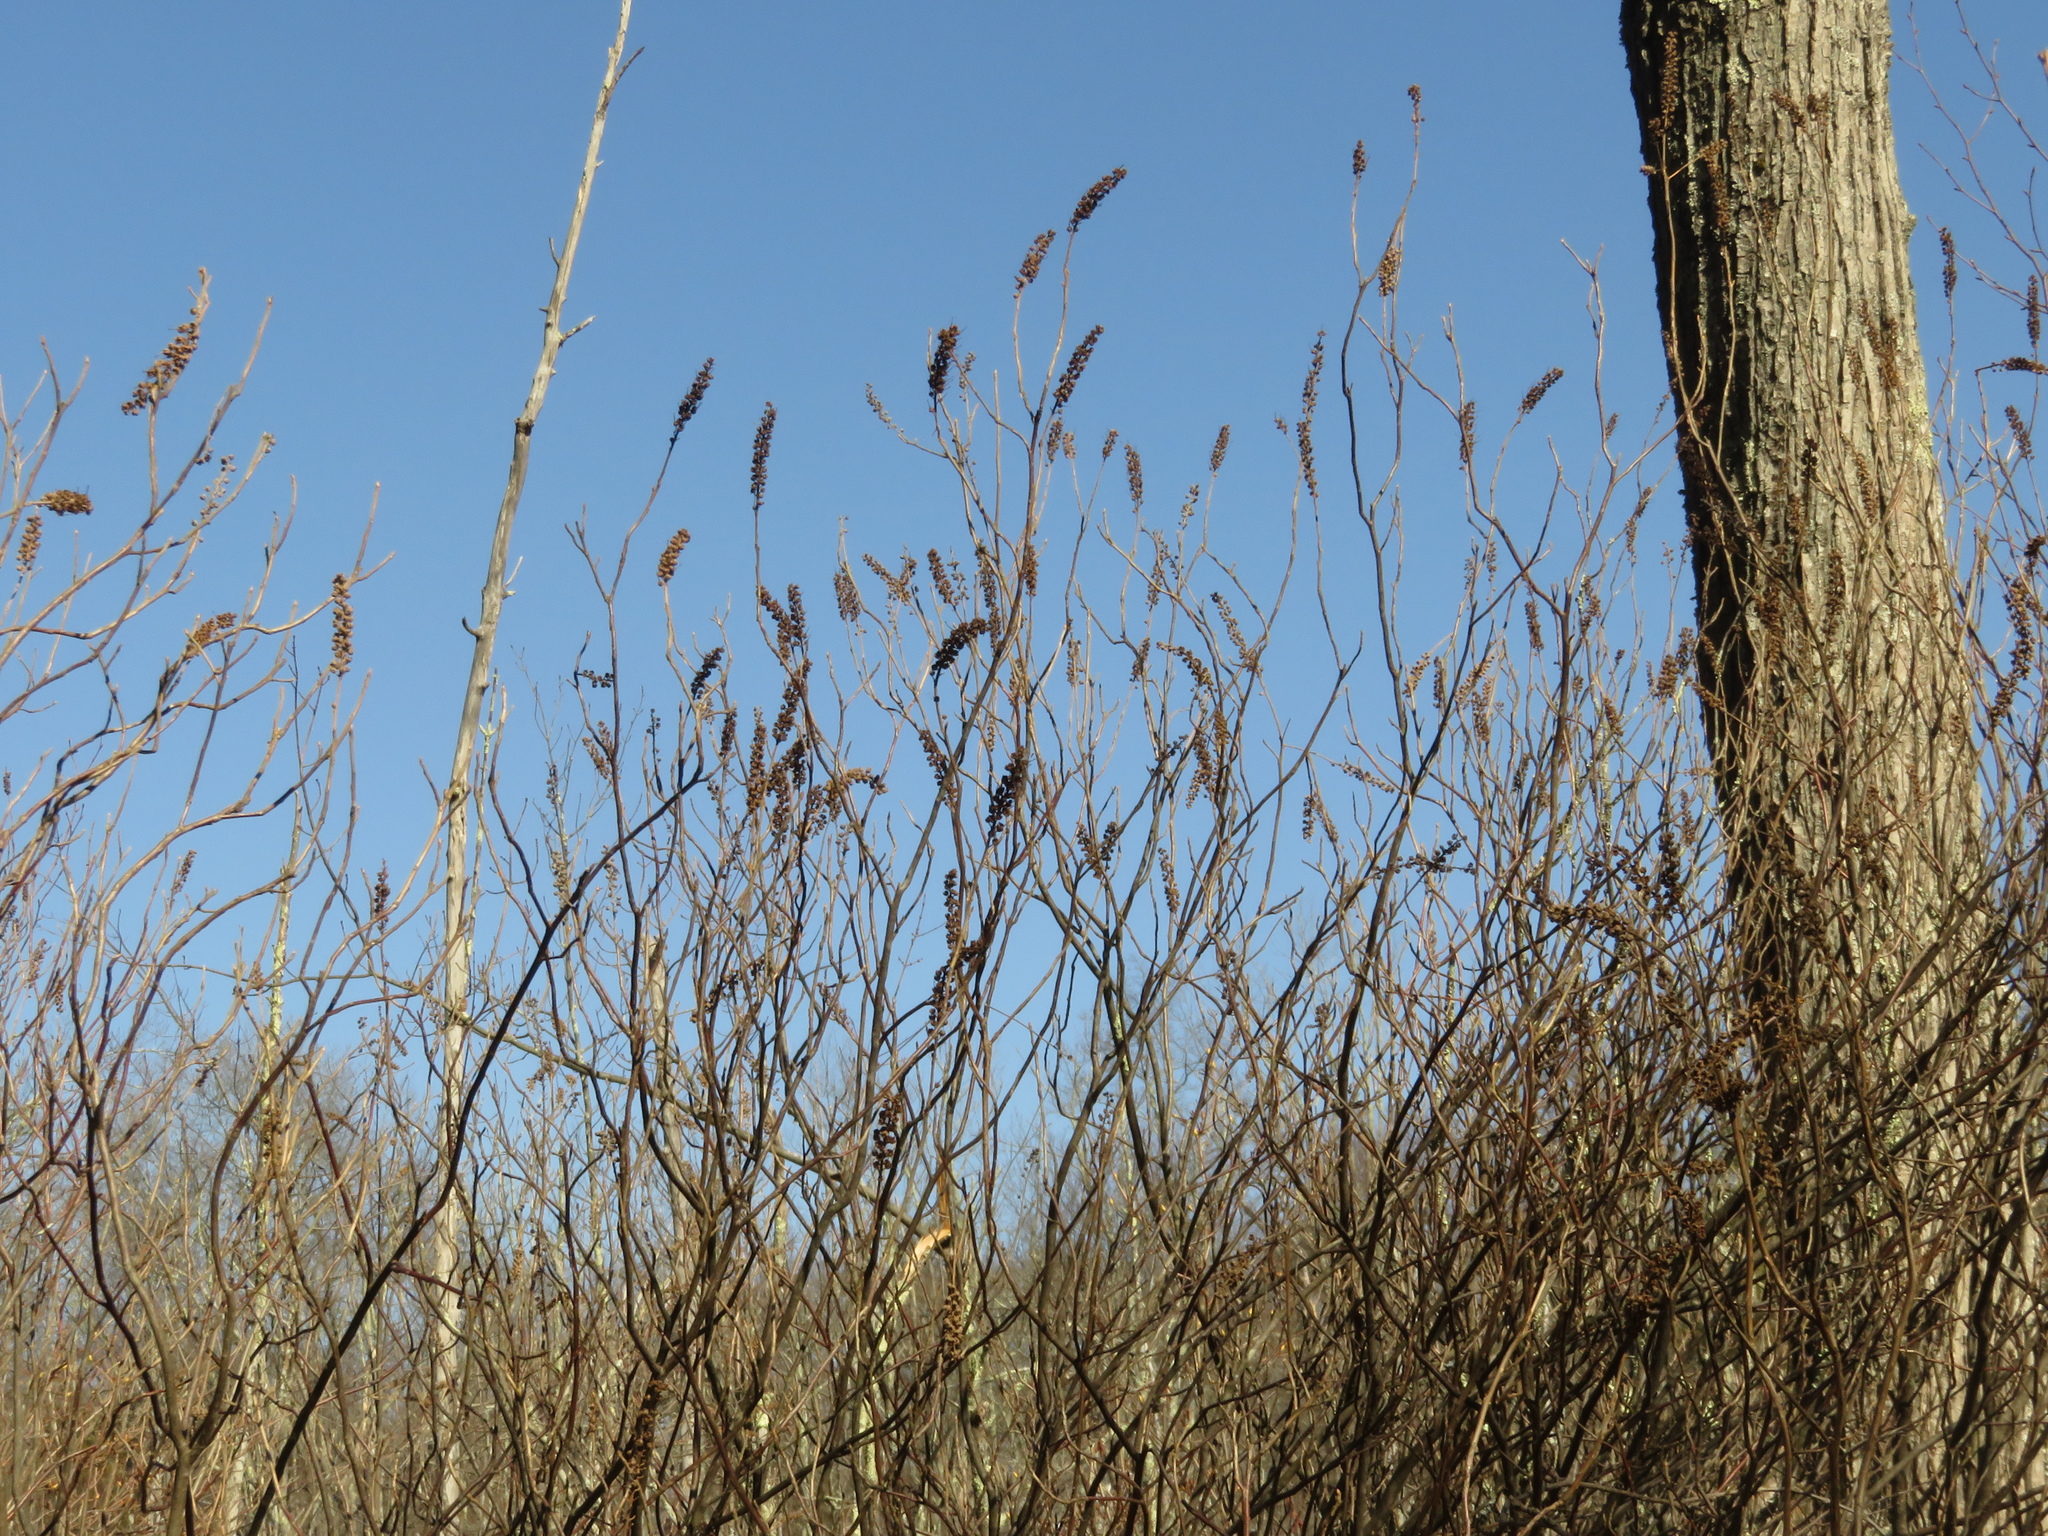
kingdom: Plantae
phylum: Tracheophyta
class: Magnoliopsida
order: Ericales
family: Clethraceae
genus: Clethra
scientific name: Clethra alnifolia
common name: Sweet pepperbush
